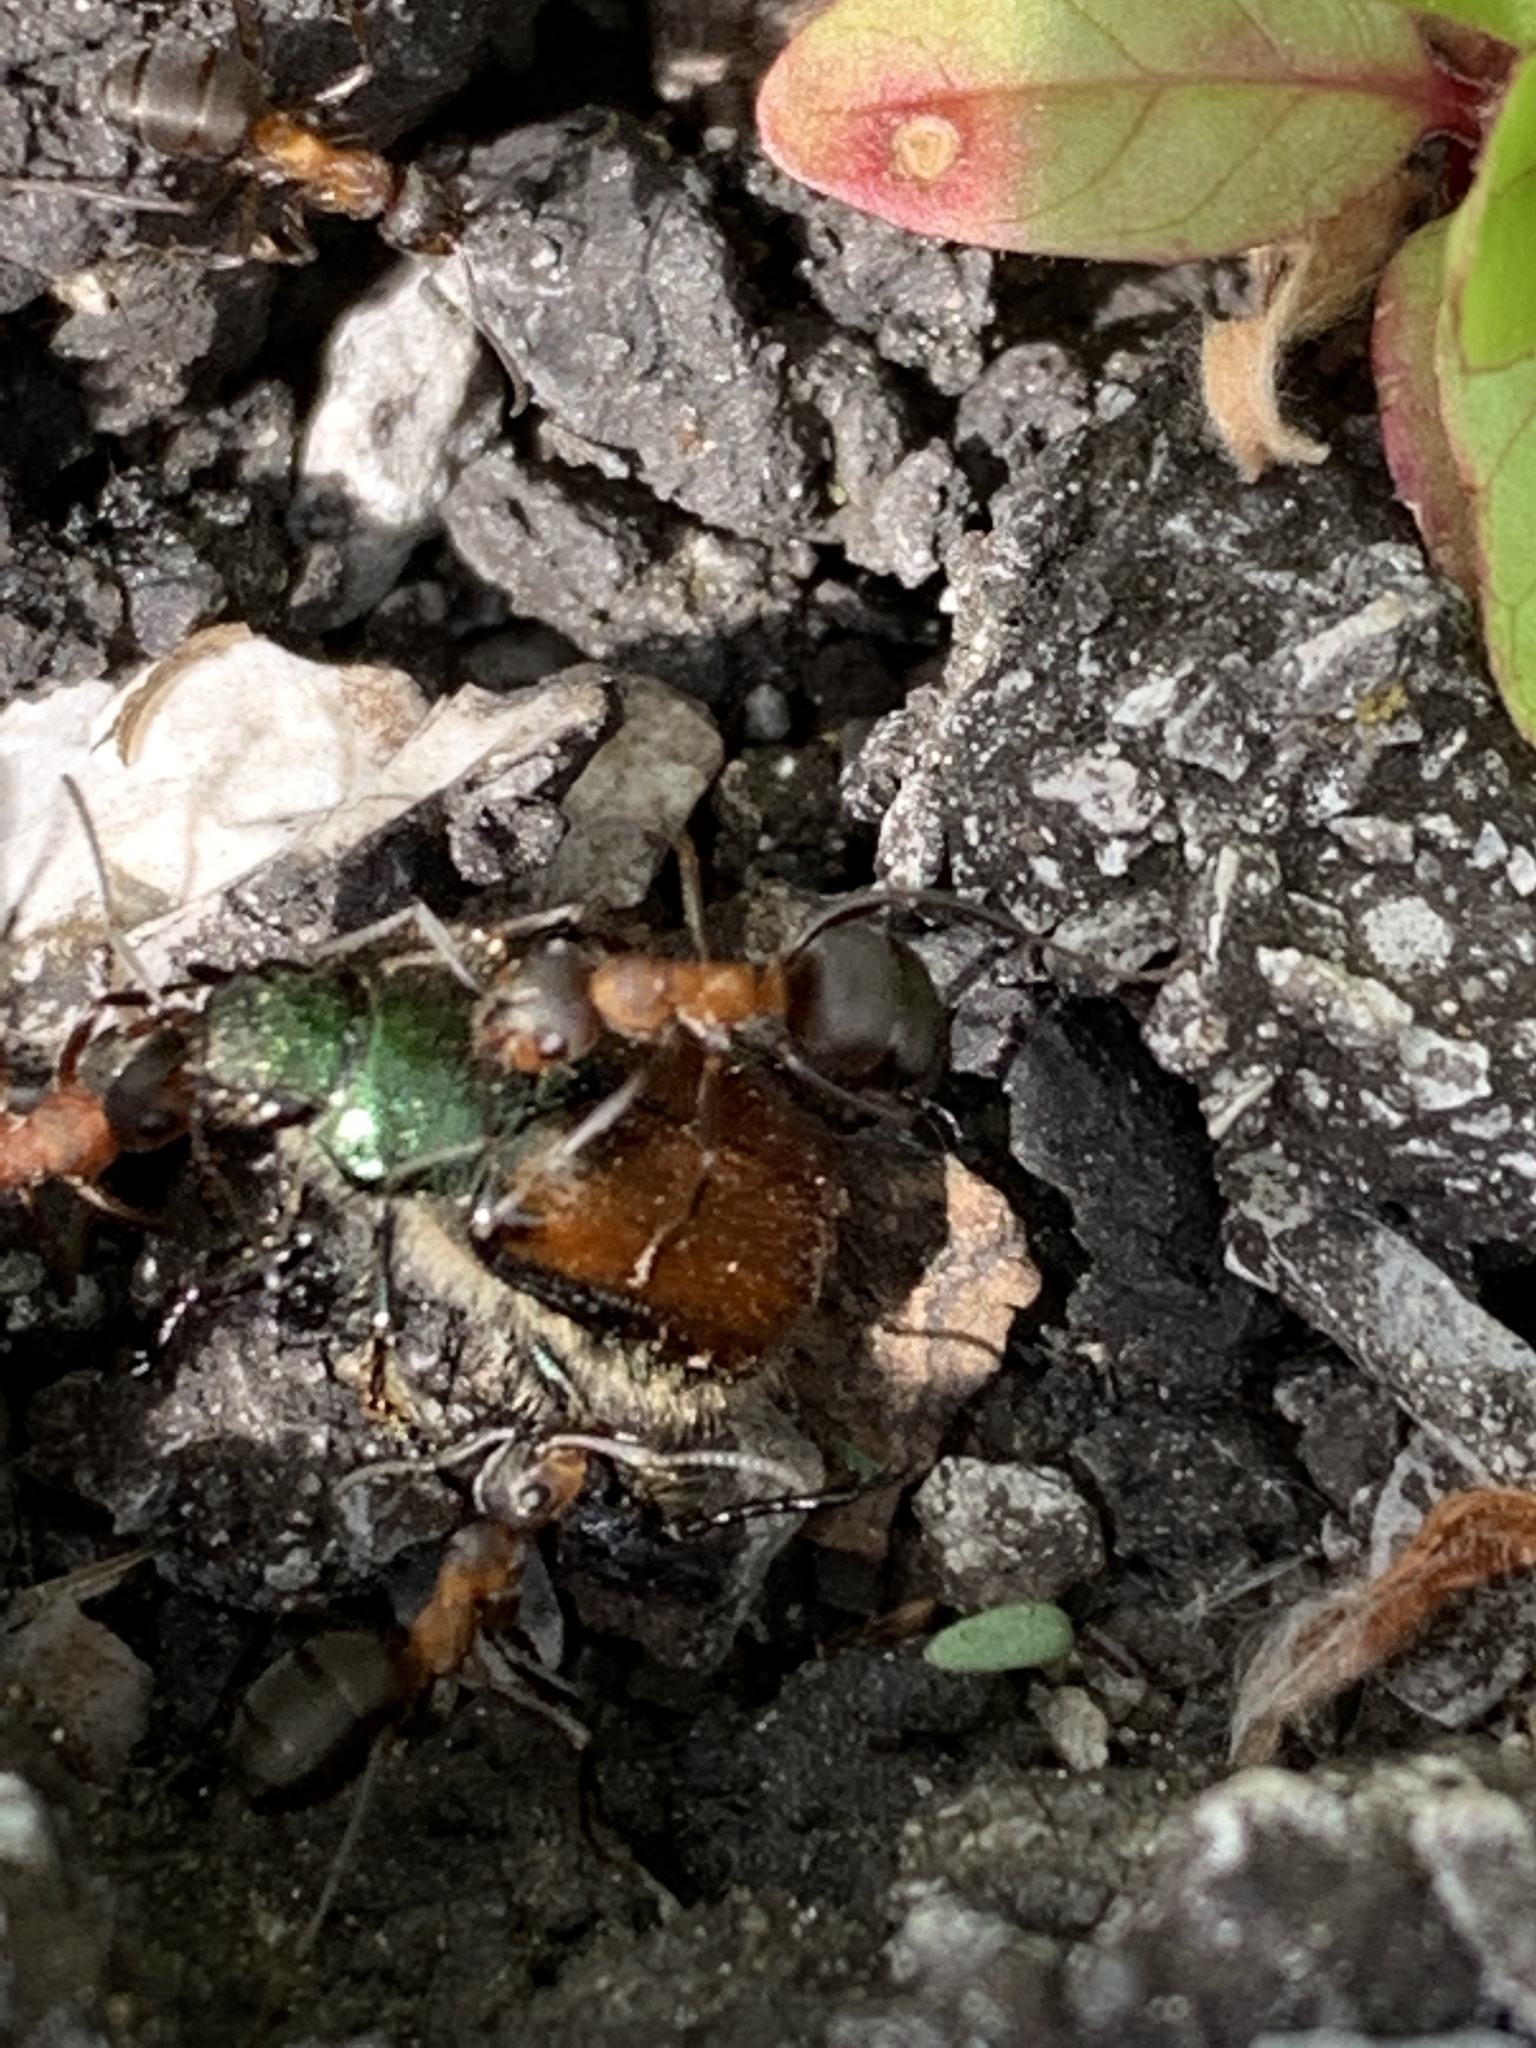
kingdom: Animalia
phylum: Arthropoda
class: Insecta
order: Coleoptera
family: Scarabaeidae
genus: Phyllopertha
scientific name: Phyllopertha horticola
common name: Garden chafer
